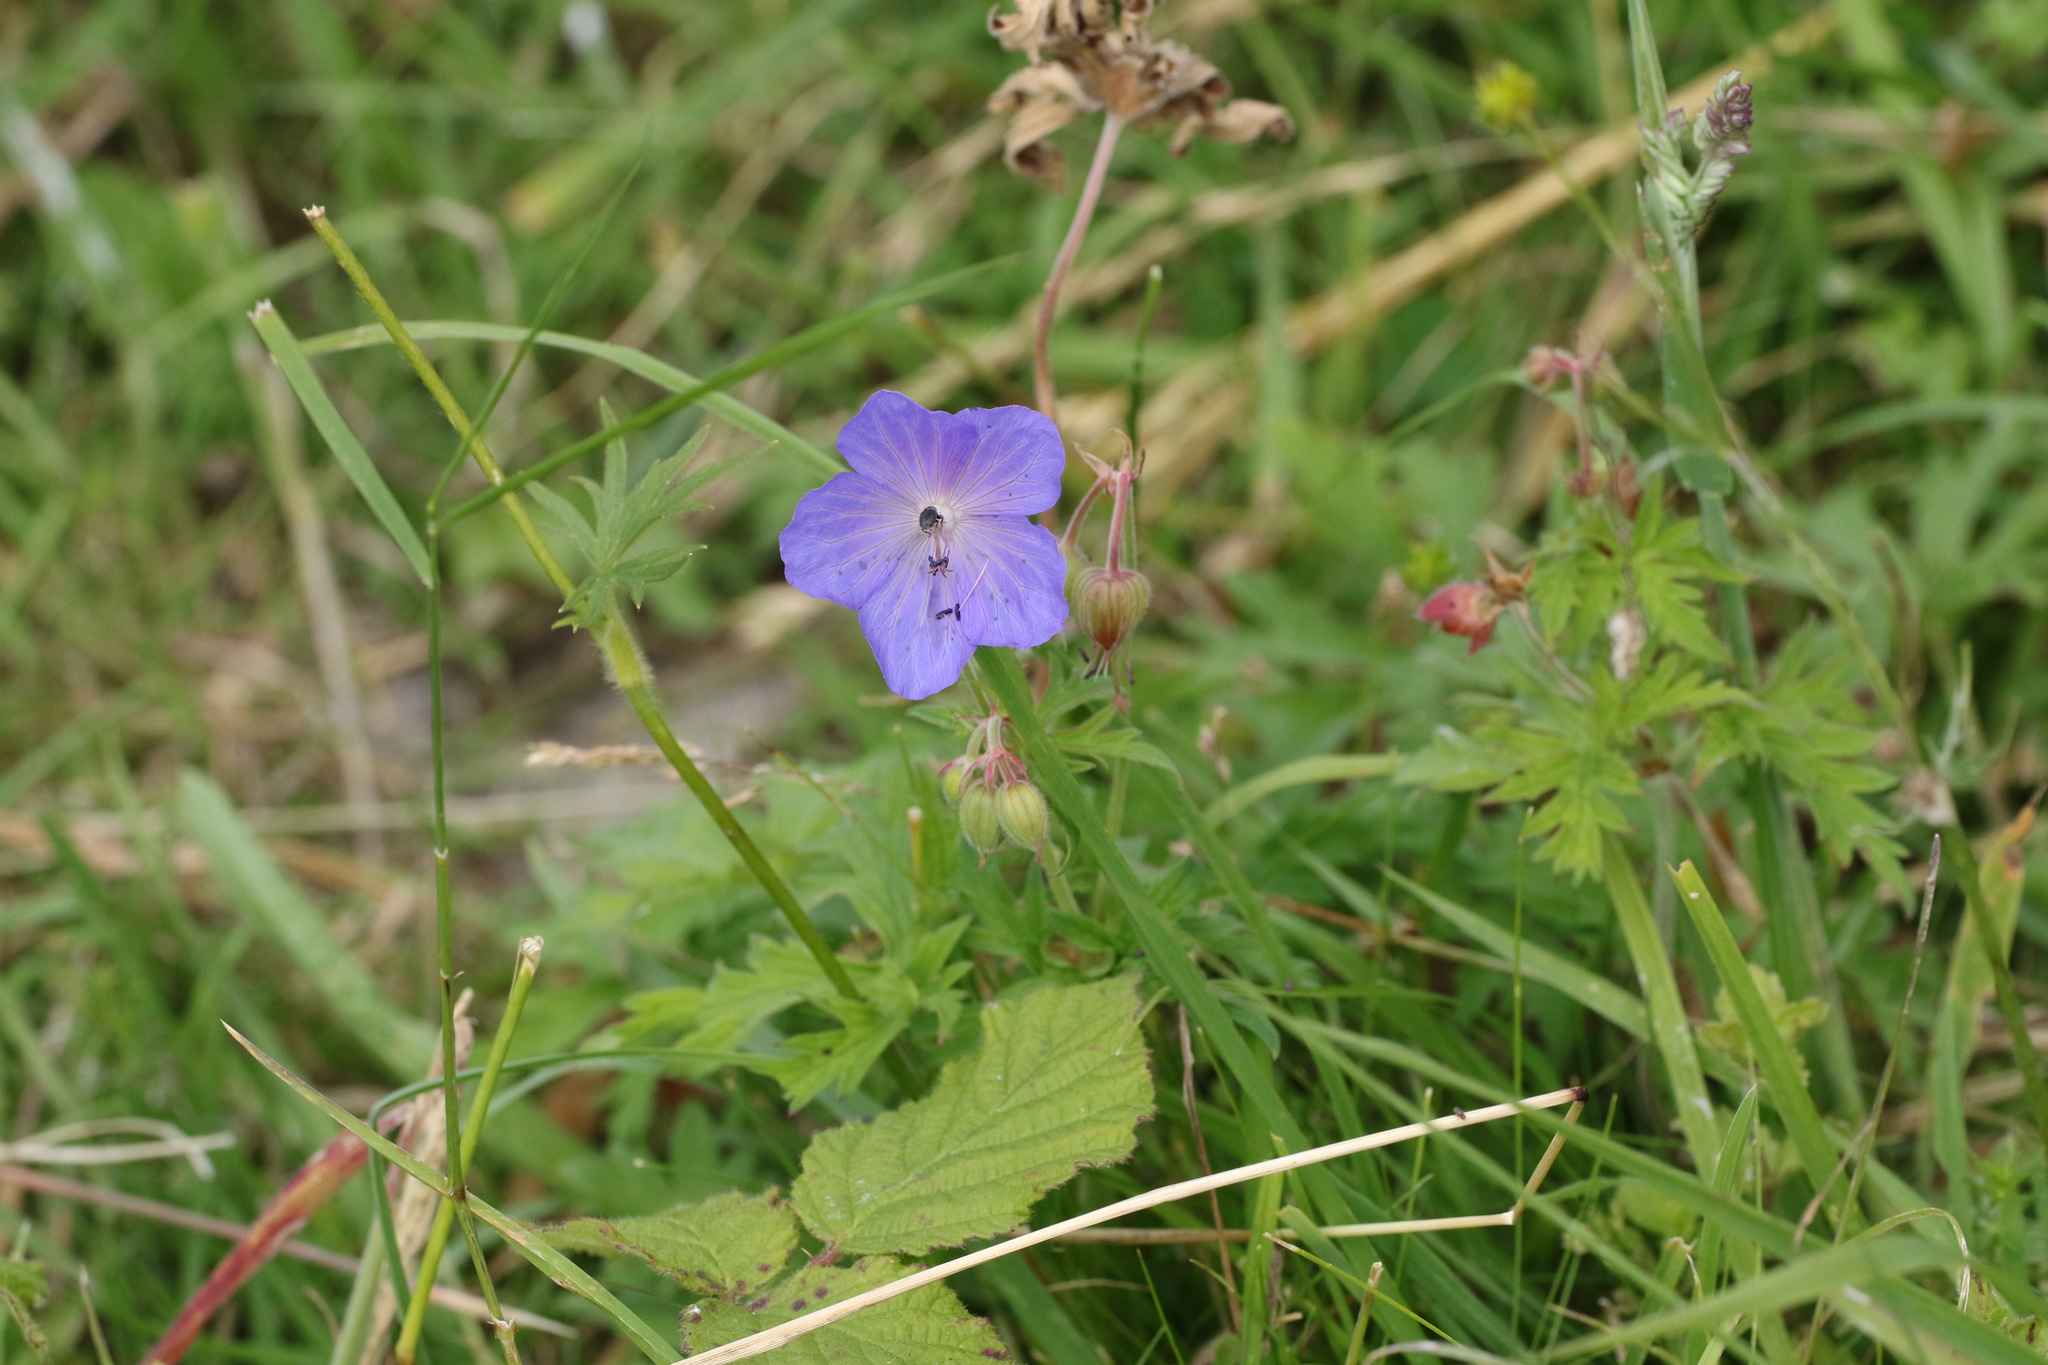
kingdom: Plantae
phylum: Tracheophyta
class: Magnoliopsida
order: Geraniales
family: Geraniaceae
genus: Geranium
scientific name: Geranium pratense
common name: Meadow crane's-bill
